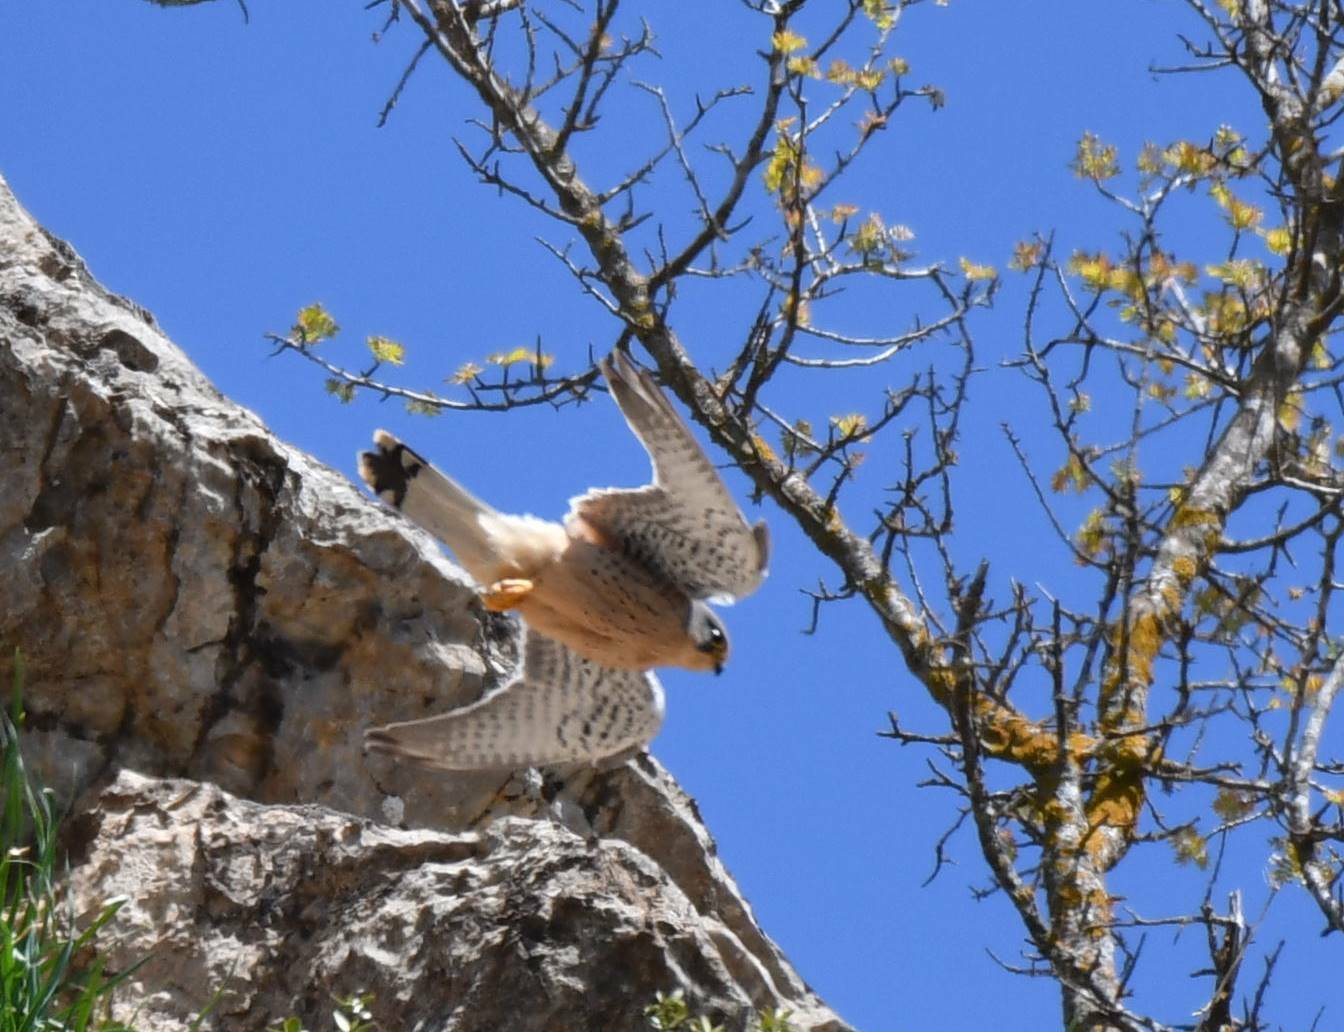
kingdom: Animalia
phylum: Chordata
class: Aves
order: Falconiformes
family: Falconidae
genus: Falco
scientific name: Falco naumanni
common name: Lesser kestrel
